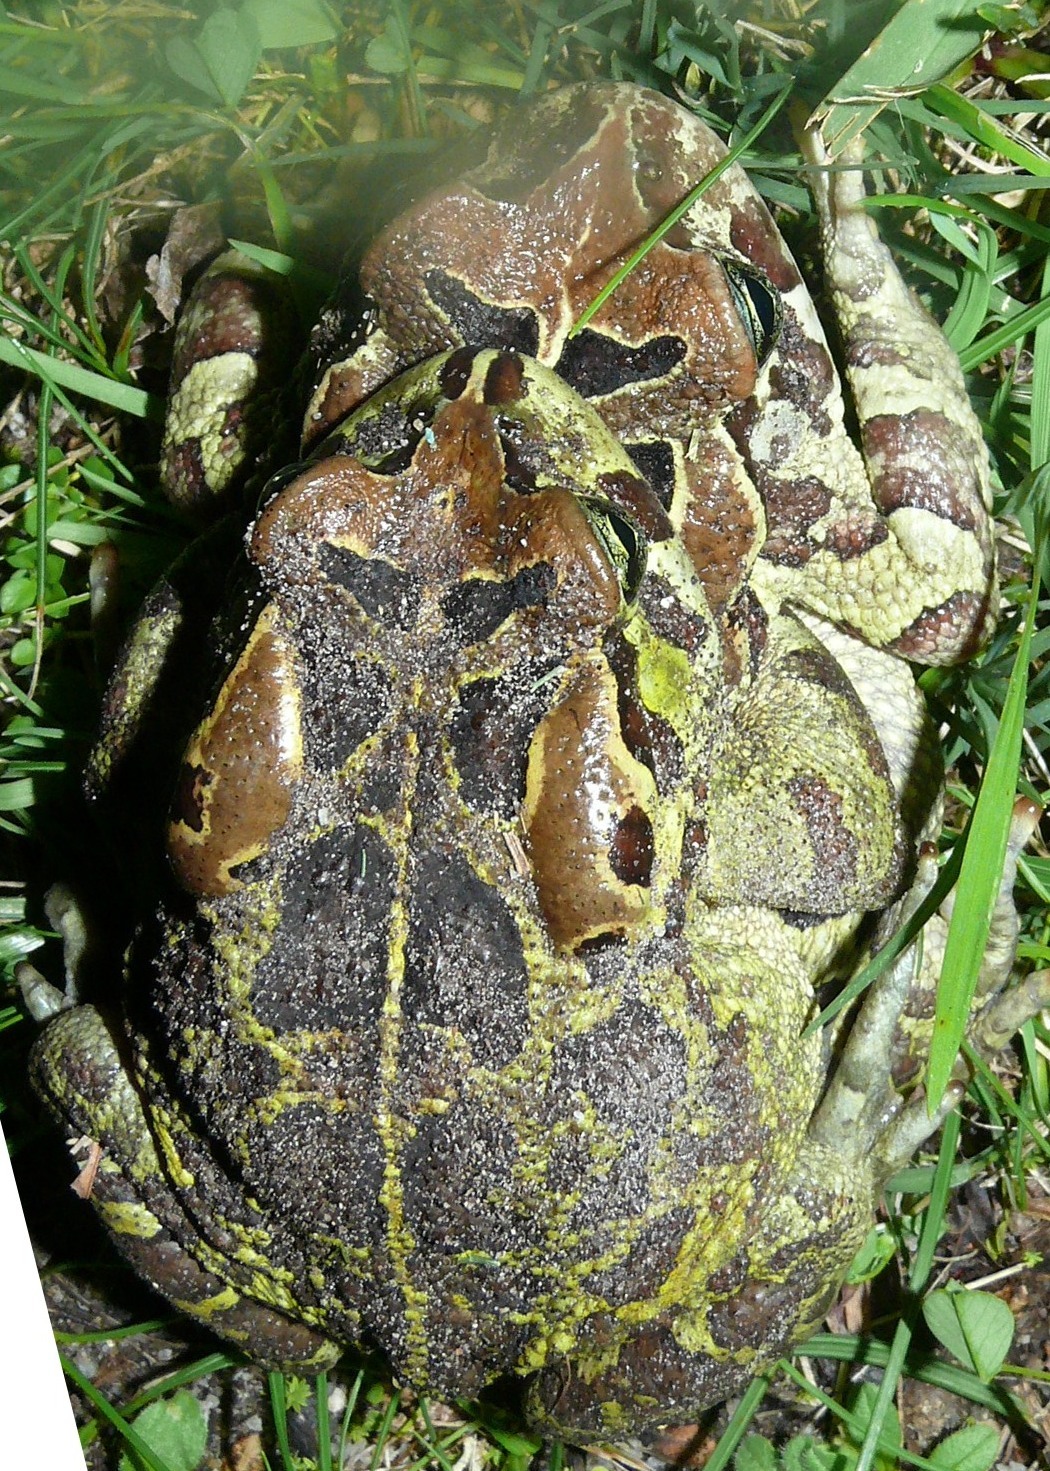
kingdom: Animalia
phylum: Chordata
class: Amphibia
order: Anura
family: Bufonidae
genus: Sclerophrys
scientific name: Sclerophrys pantherina
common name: Panther toad
